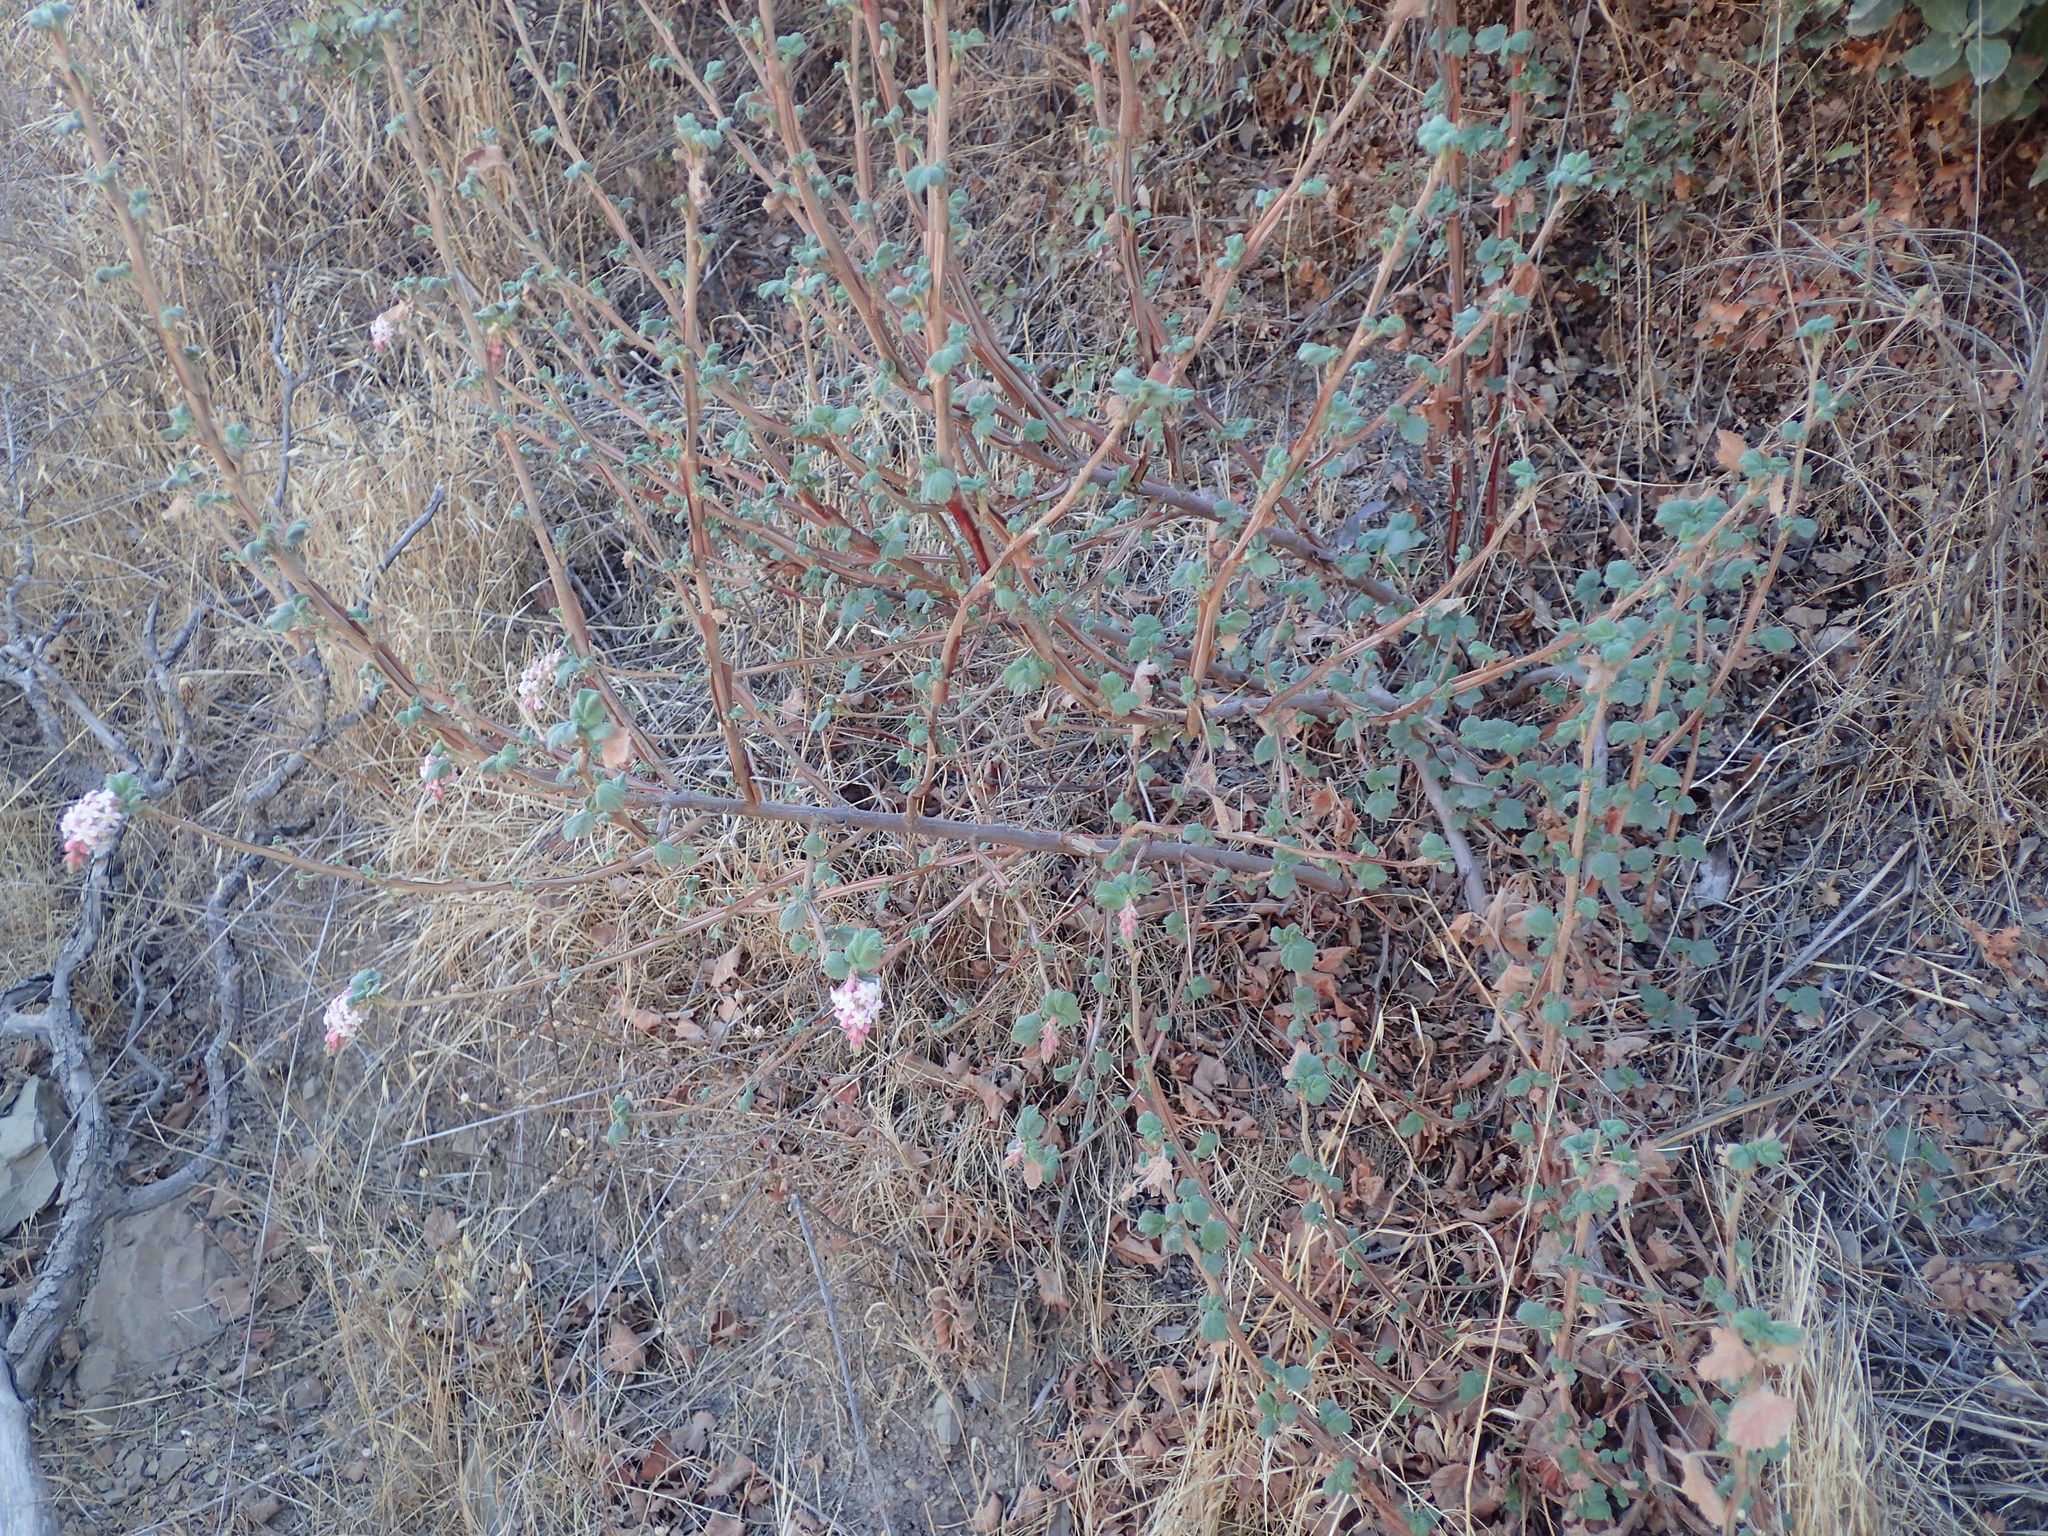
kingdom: Plantae
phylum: Tracheophyta
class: Magnoliopsida
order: Saxifragales
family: Grossulariaceae
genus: Ribes
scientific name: Ribes malvaceum
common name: Chaparral currant
